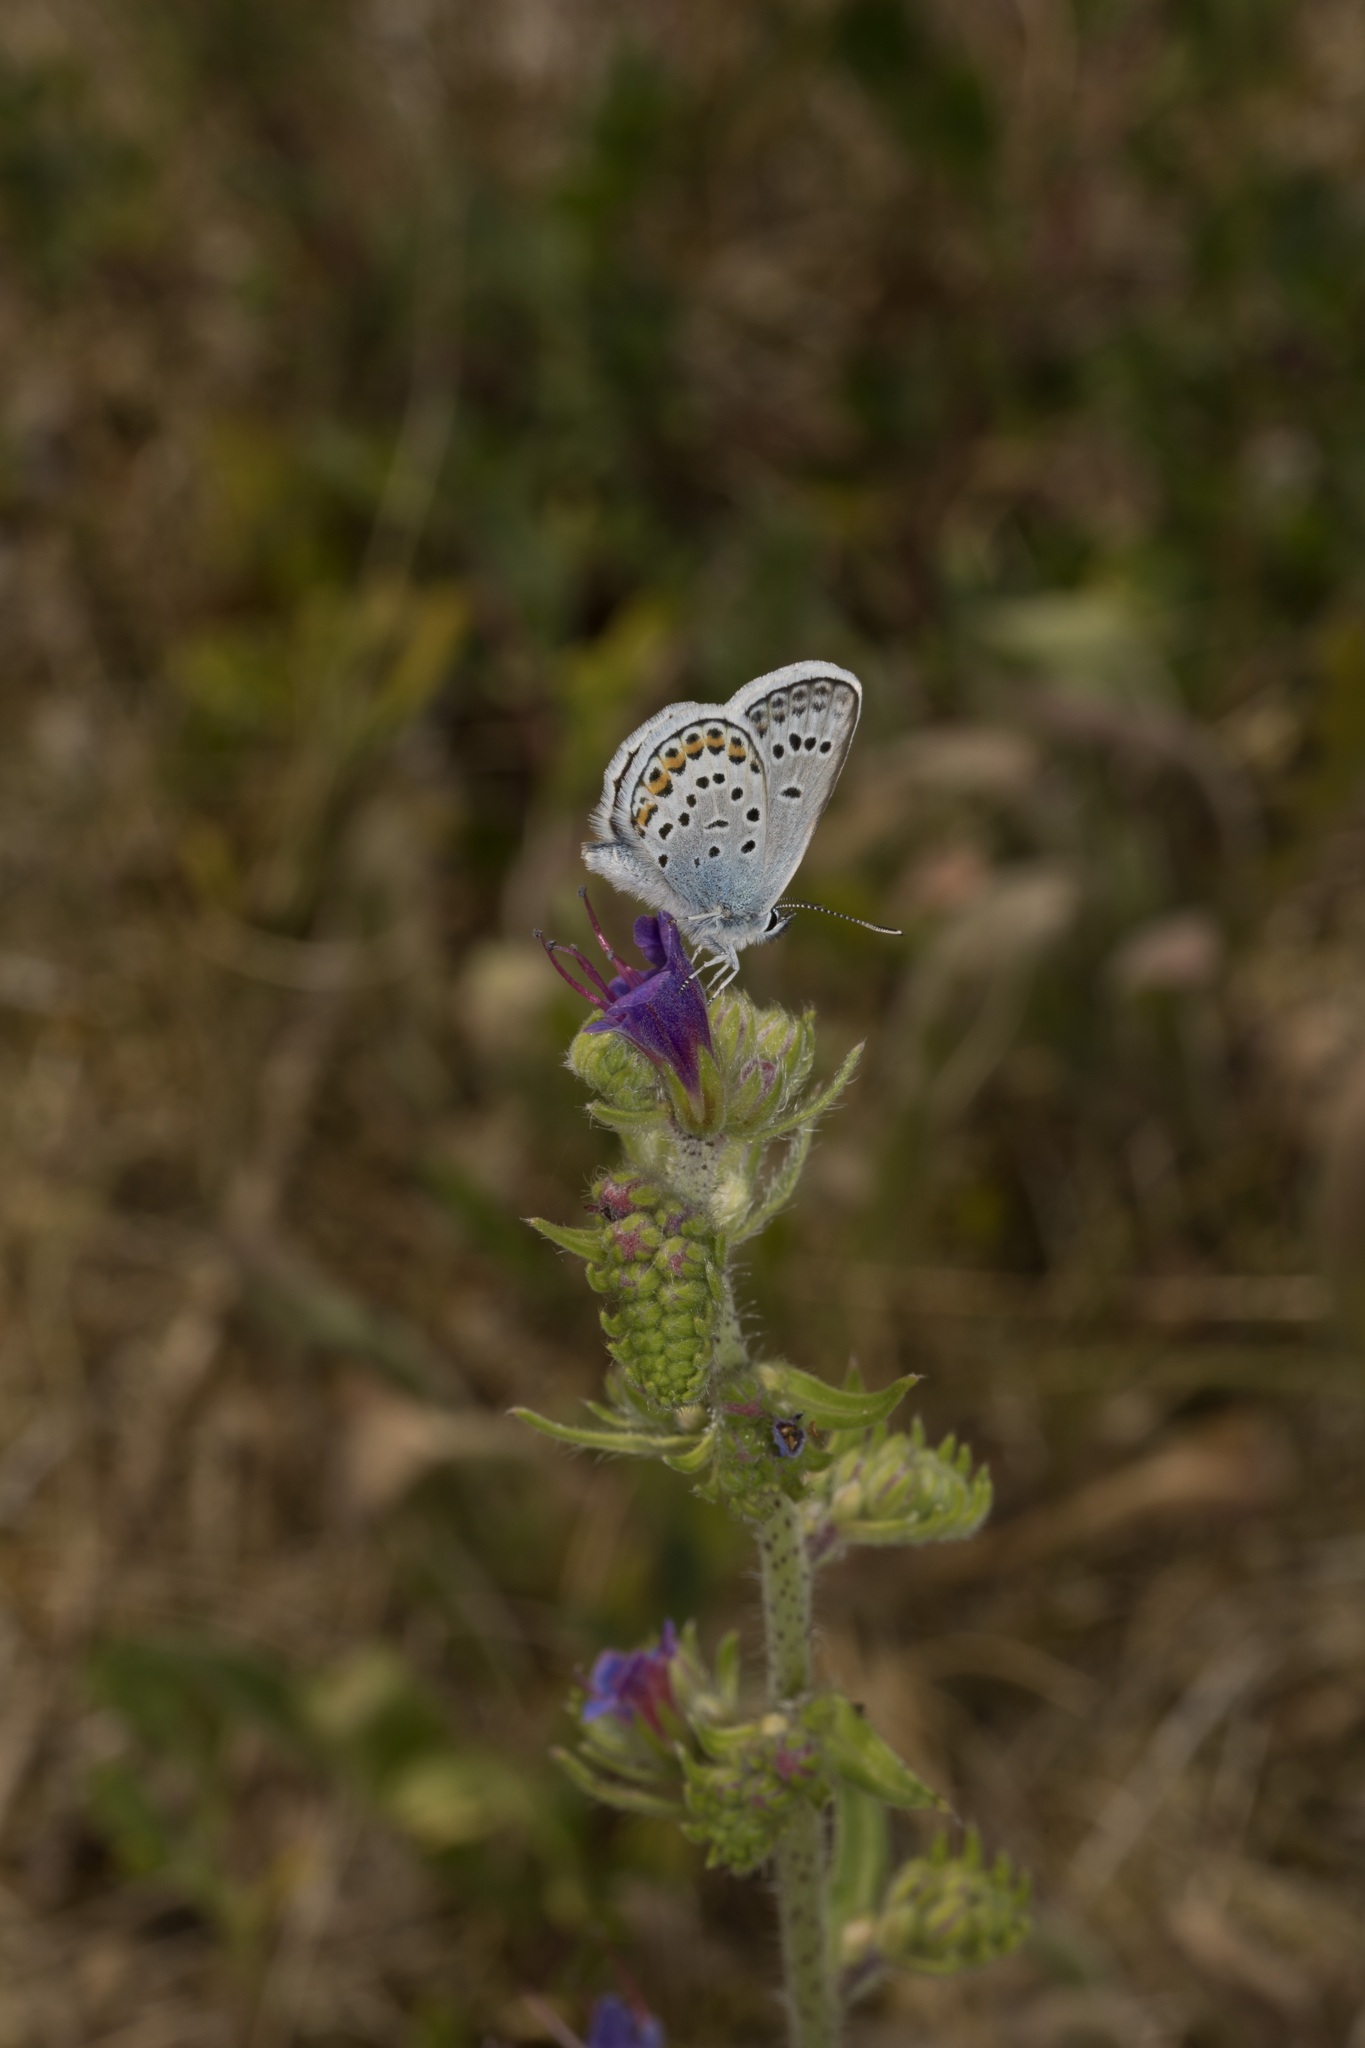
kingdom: Animalia
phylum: Arthropoda
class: Insecta
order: Lepidoptera
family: Lycaenidae
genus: Plebejus
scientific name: Plebejus argus
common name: Silver-studded blue
